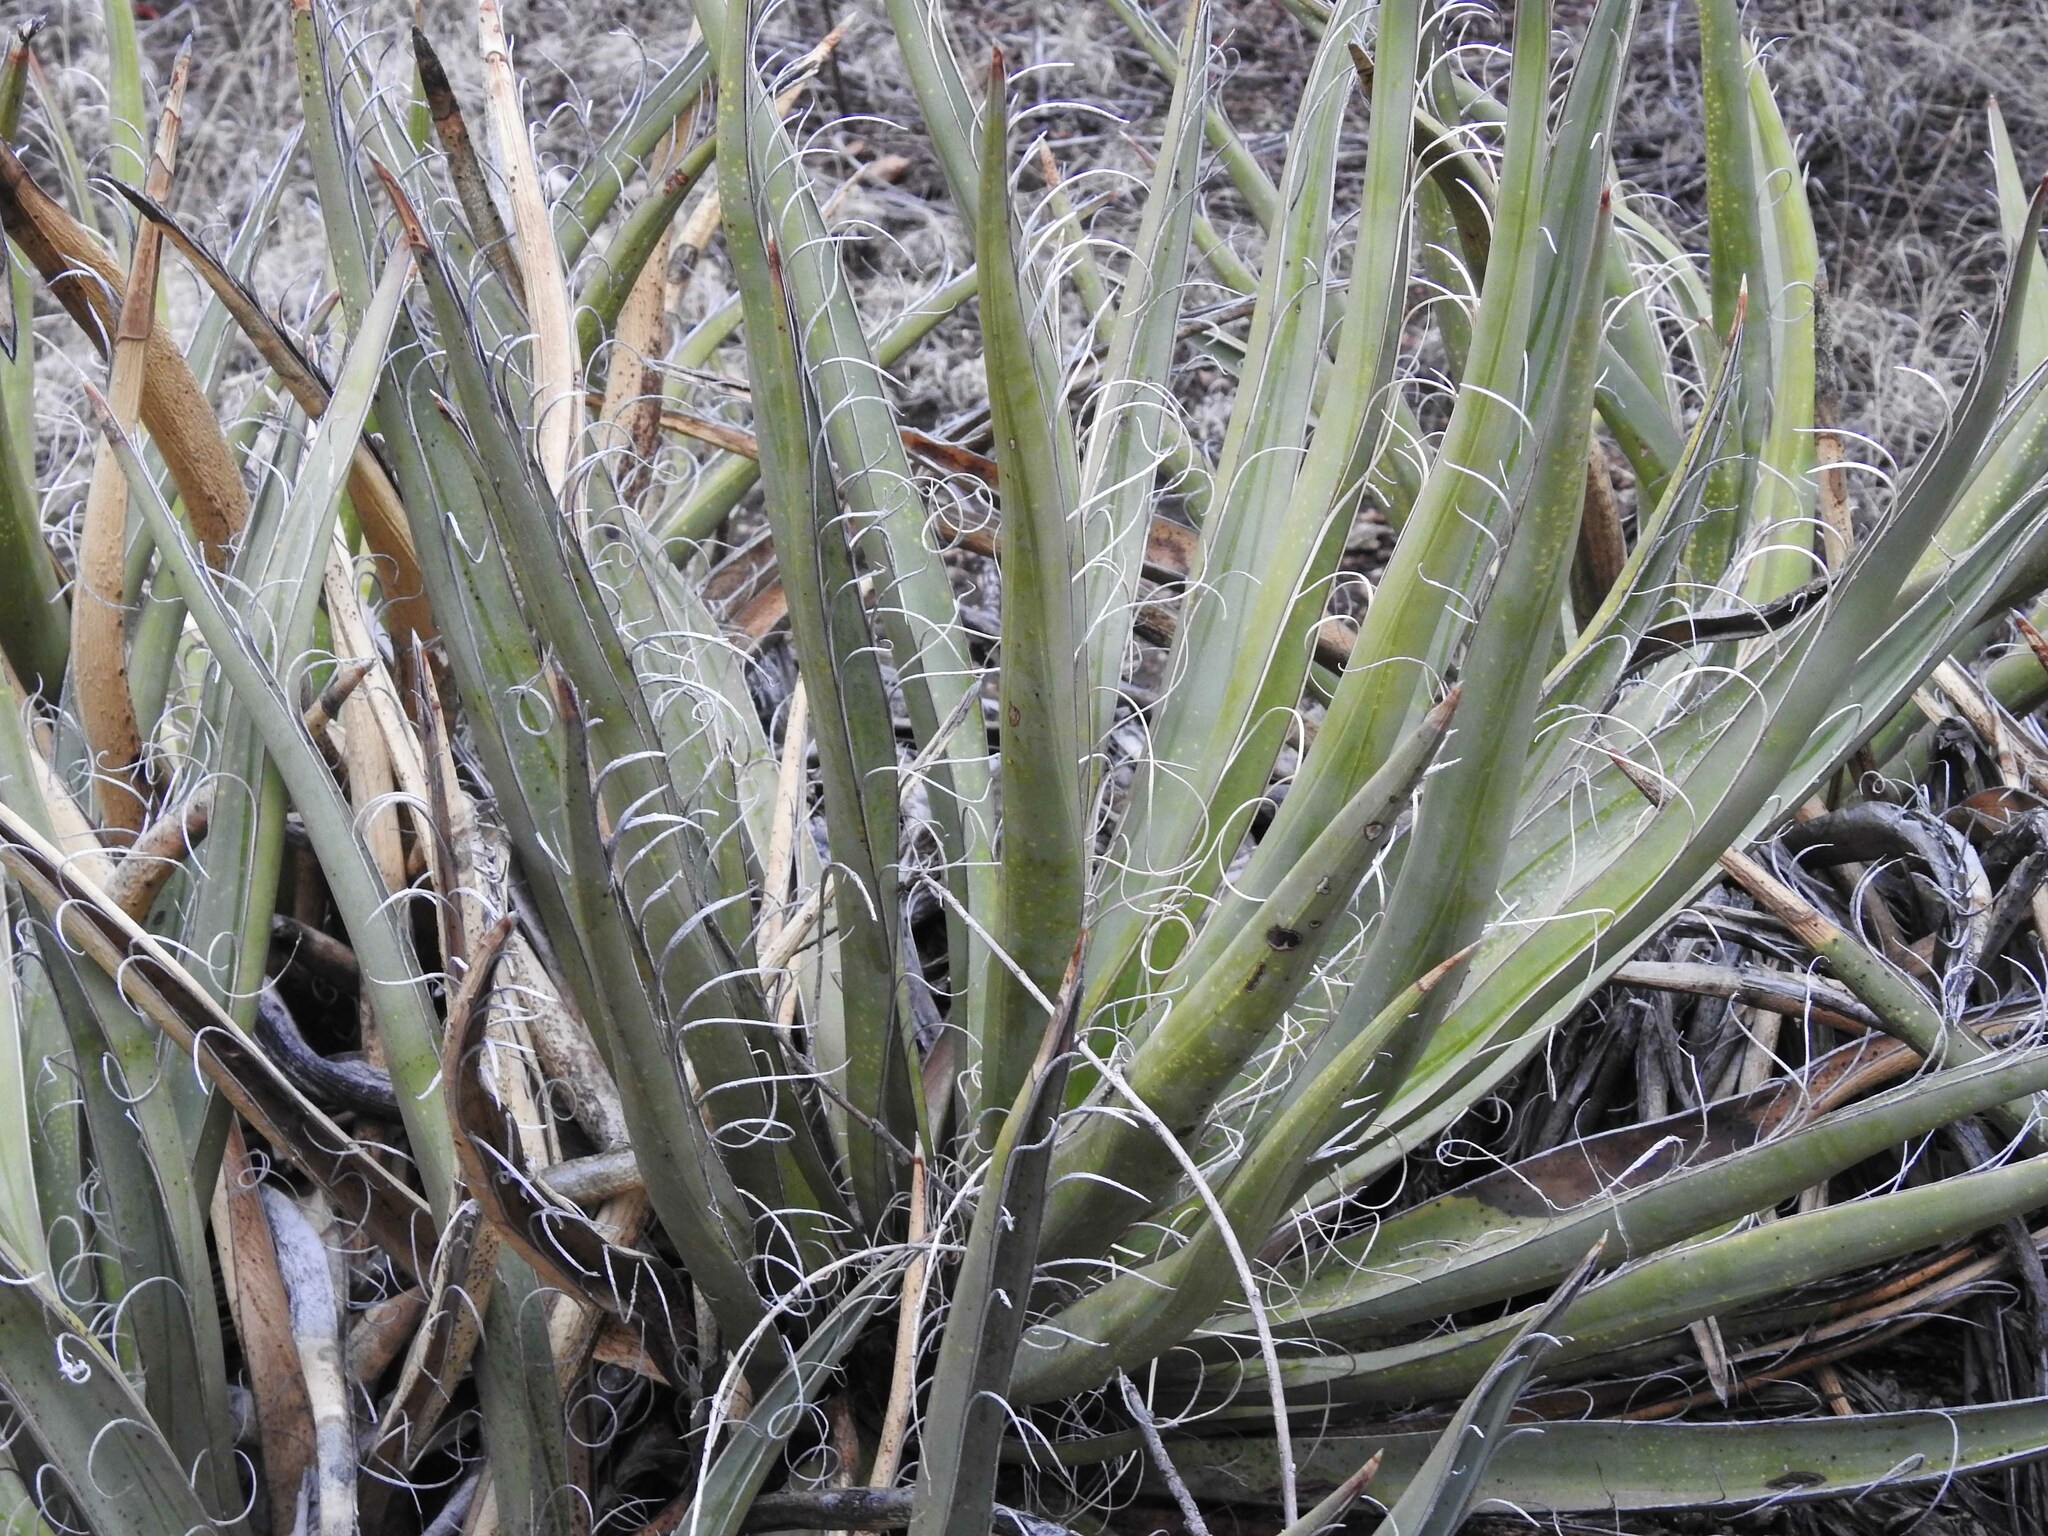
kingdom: Plantae
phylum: Tracheophyta
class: Liliopsida
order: Asparagales
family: Asparagaceae
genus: Yucca
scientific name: Yucca baccata
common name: Banana yucca
